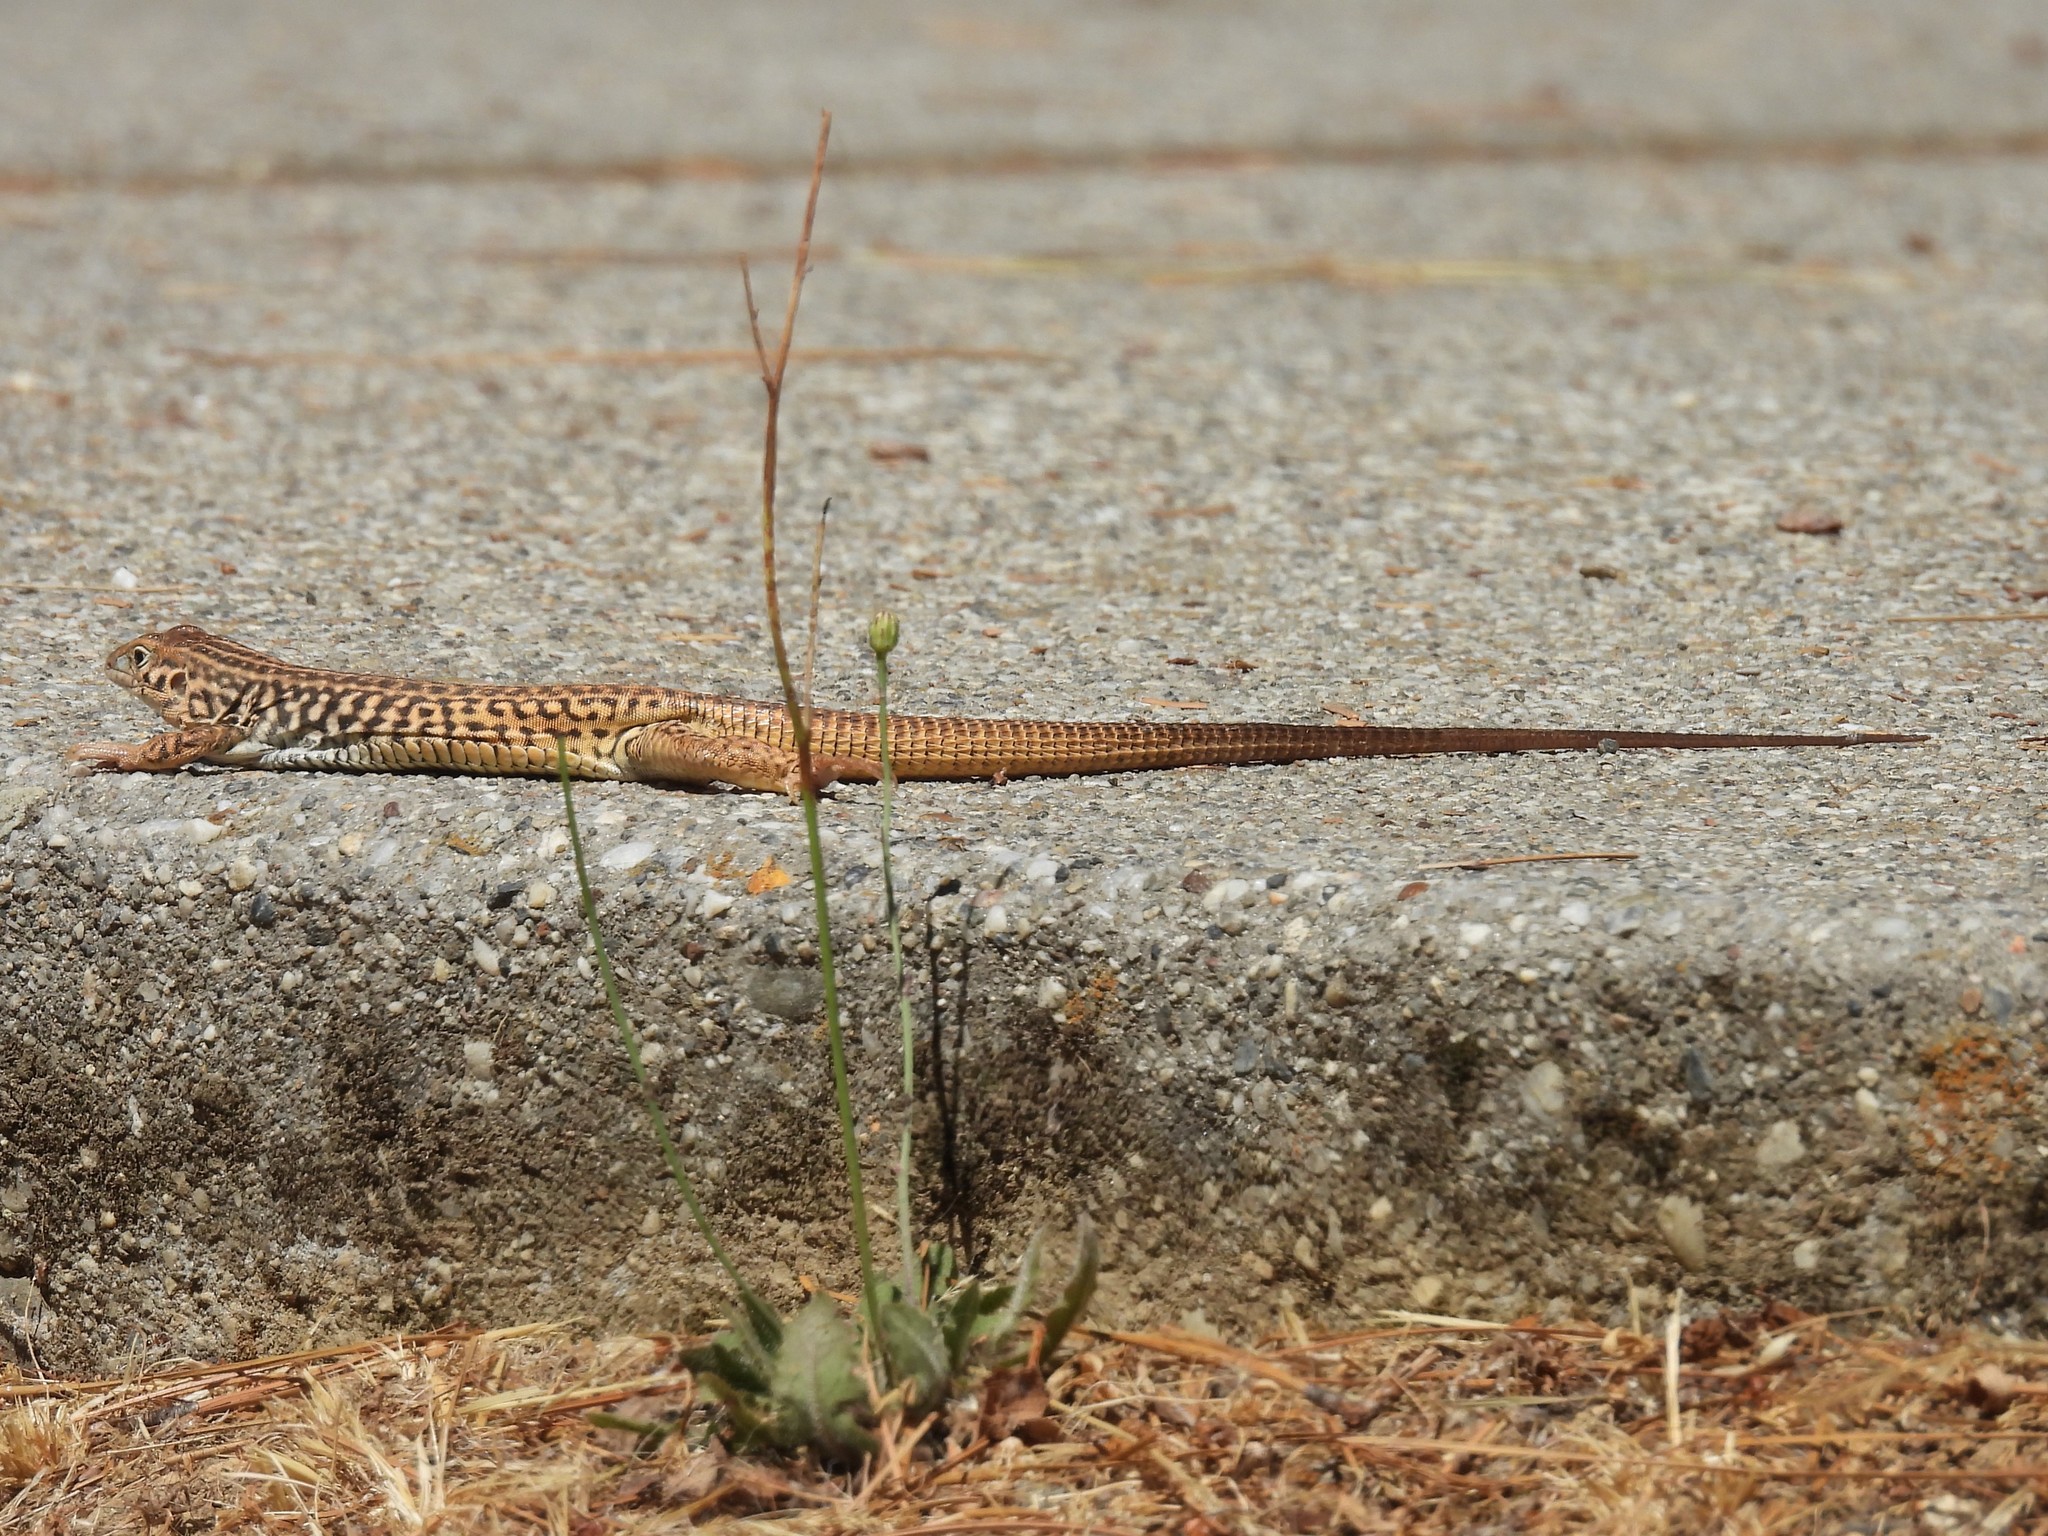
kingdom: Animalia
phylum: Chordata
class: Squamata
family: Teiidae
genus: Aspidoscelis
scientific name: Aspidoscelis tigris
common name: Tiger whiptail
